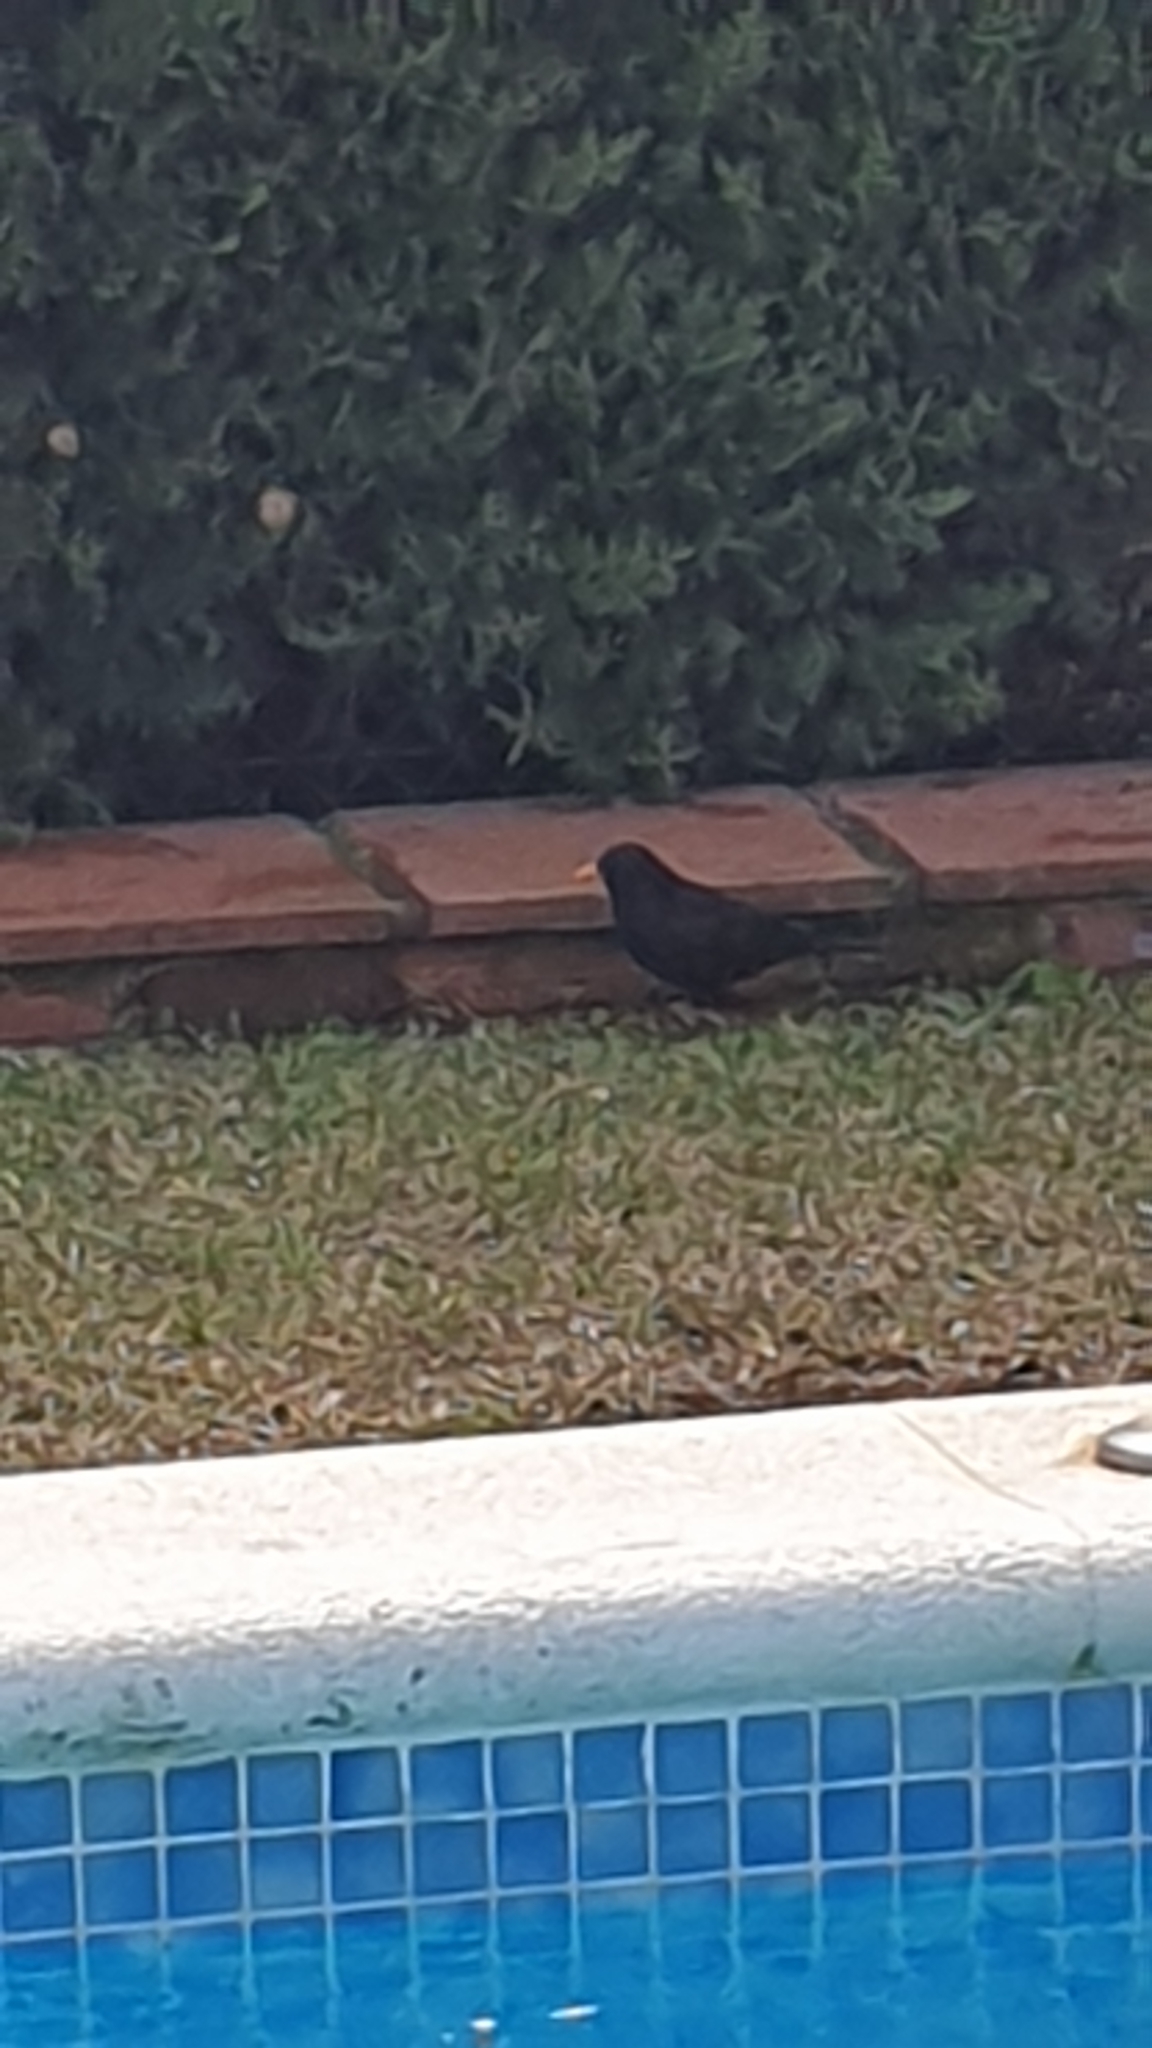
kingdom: Animalia
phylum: Chordata
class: Aves
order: Passeriformes
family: Turdidae
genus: Turdus
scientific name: Turdus merula
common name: Common blackbird
